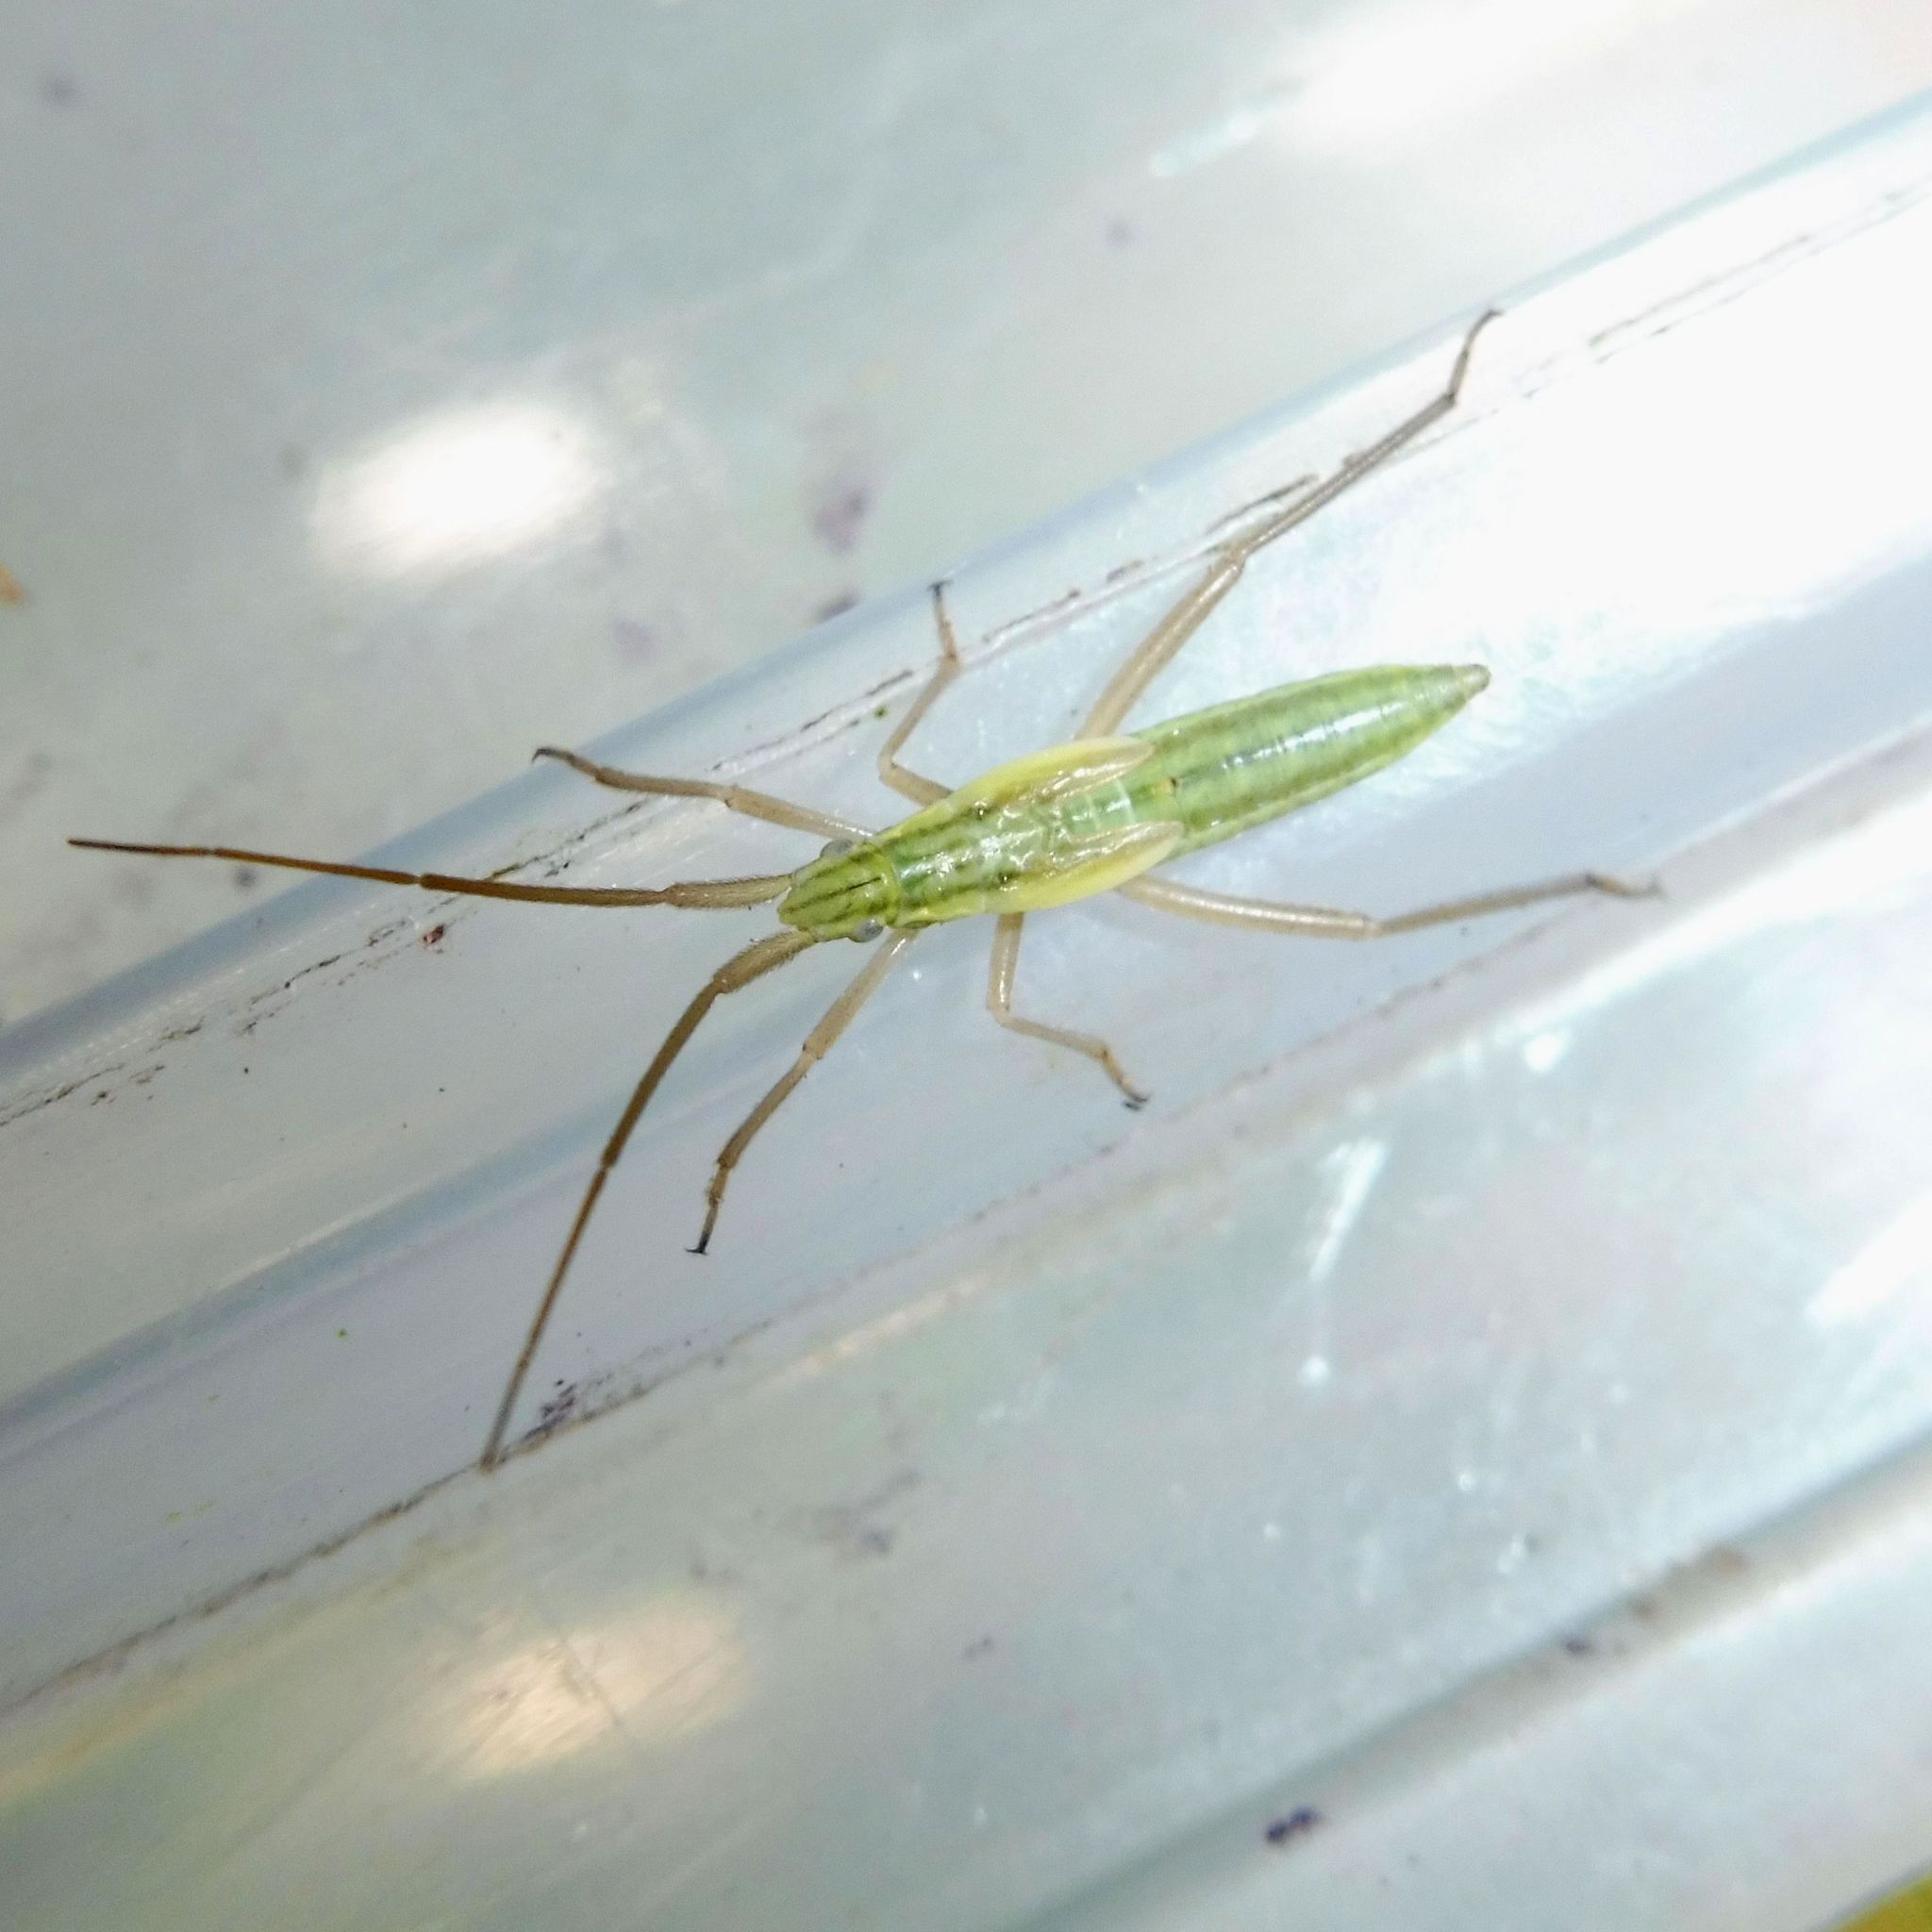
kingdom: Animalia
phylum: Arthropoda
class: Insecta
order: Hemiptera
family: Miridae
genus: Notostira
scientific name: Notostira elongata
